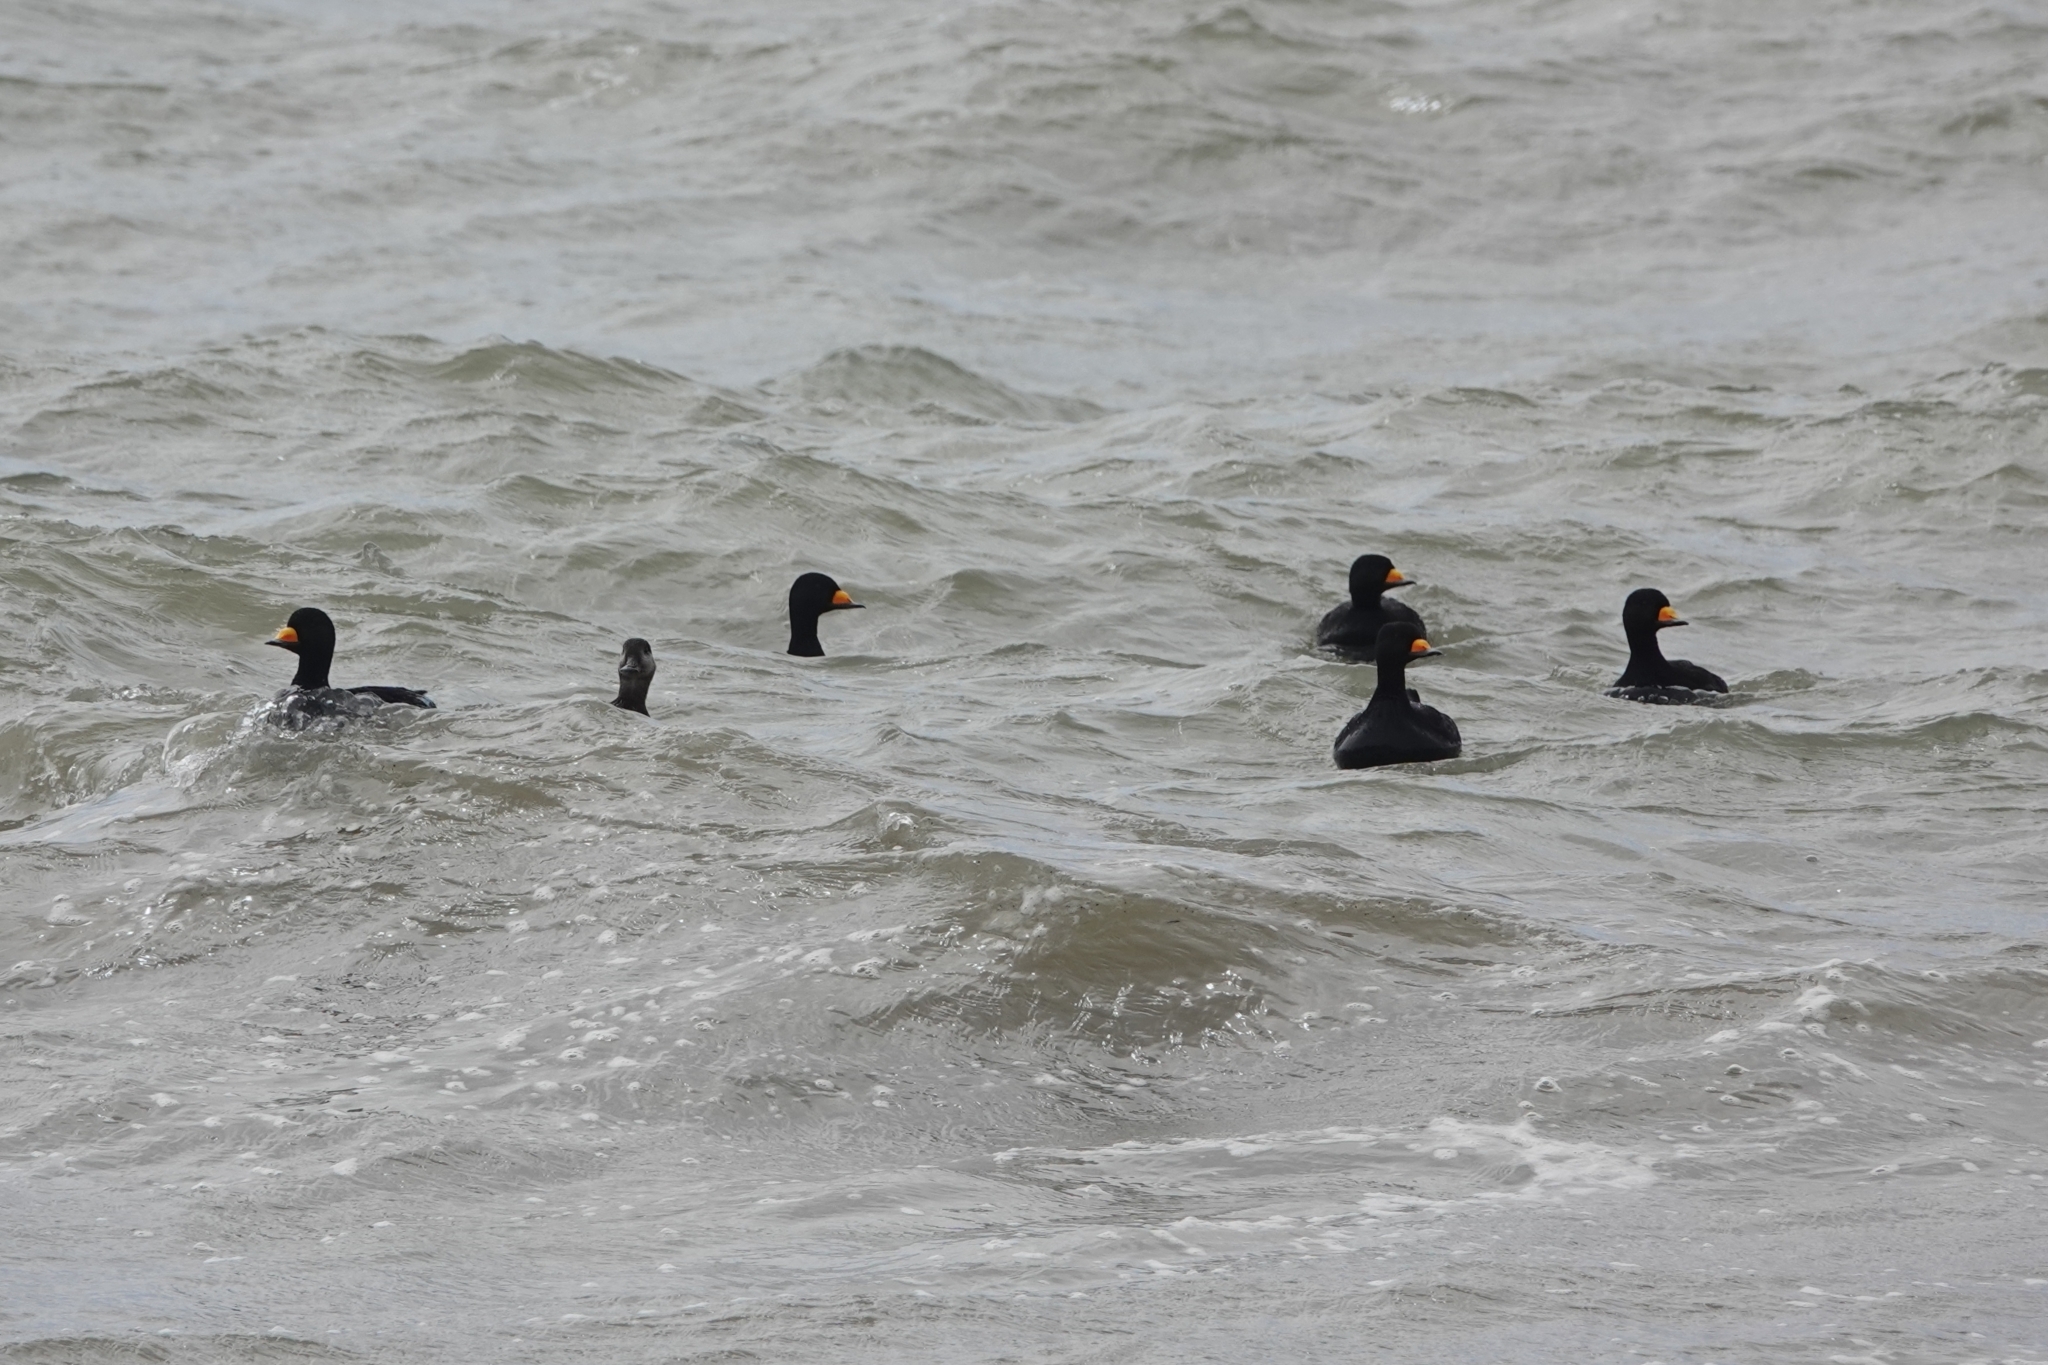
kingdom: Animalia
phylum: Chordata
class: Aves
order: Anseriformes
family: Anatidae
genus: Melanitta
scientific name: Melanitta americana
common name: Black scoter
